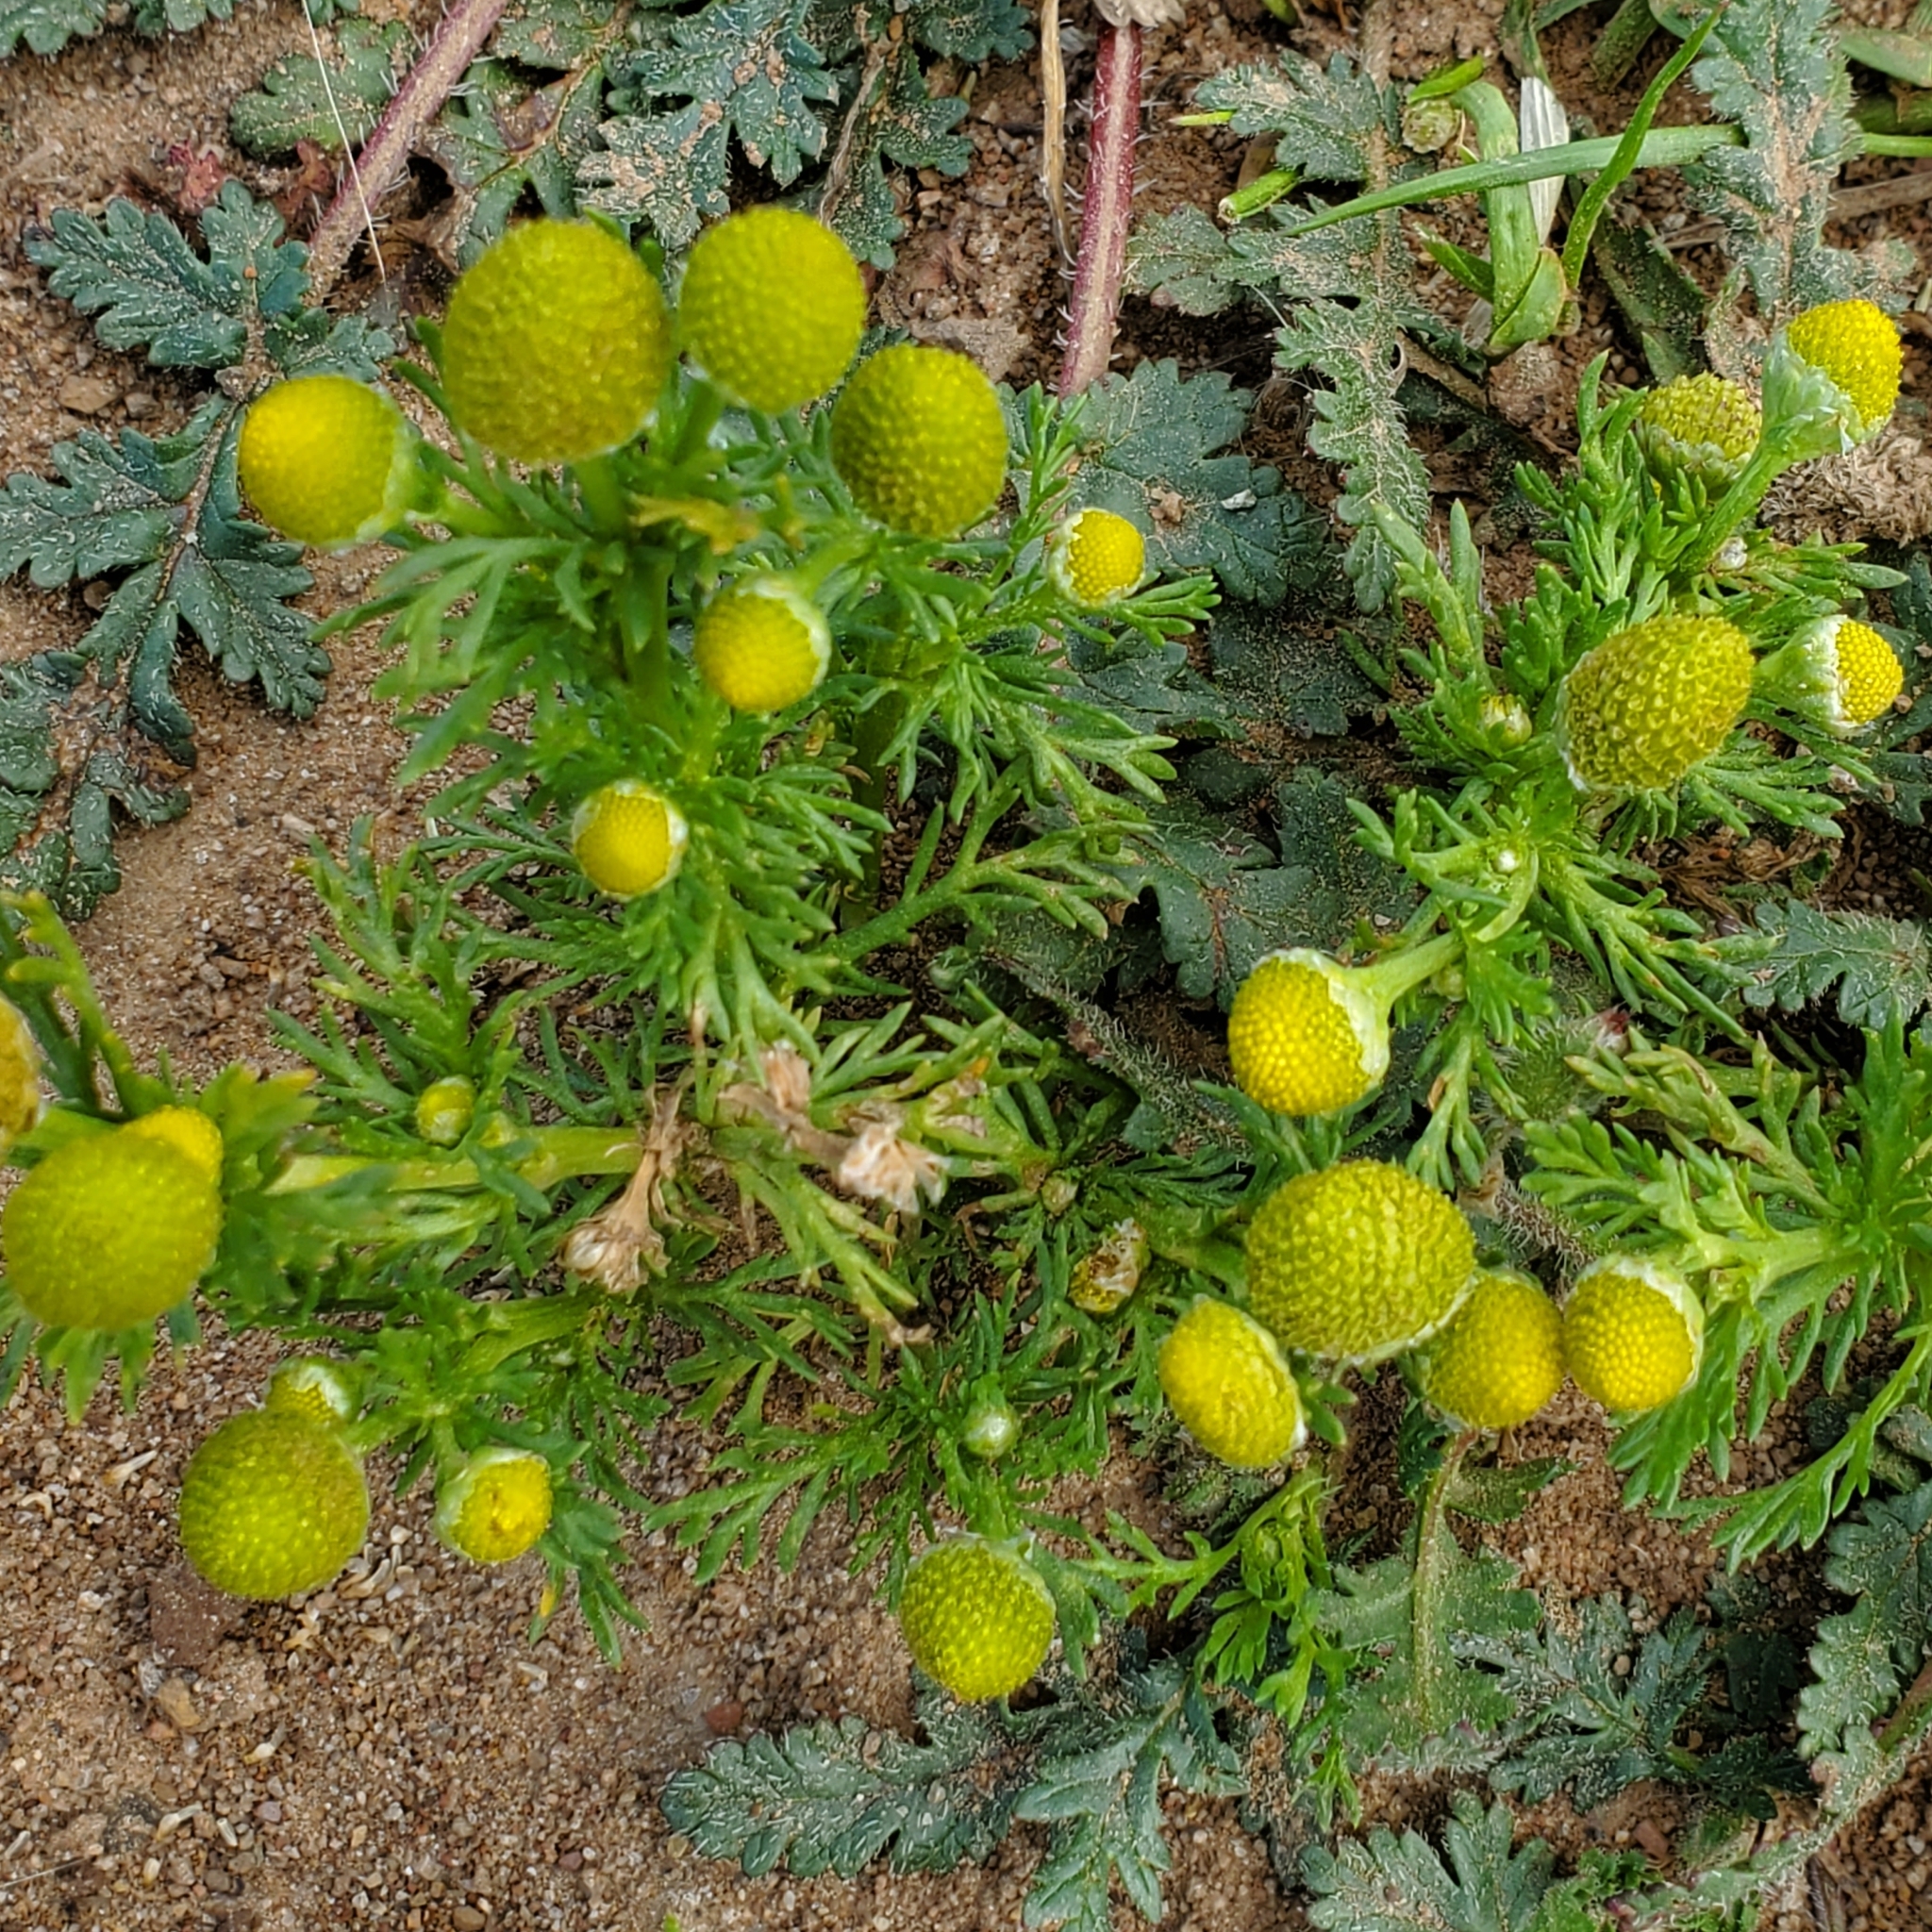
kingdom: Plantae
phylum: Tracheophyta
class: Magnoliopsida
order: Asterales
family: Asteraceae
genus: Matricaria
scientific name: Matricaria discoidea
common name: Disc mayweed
